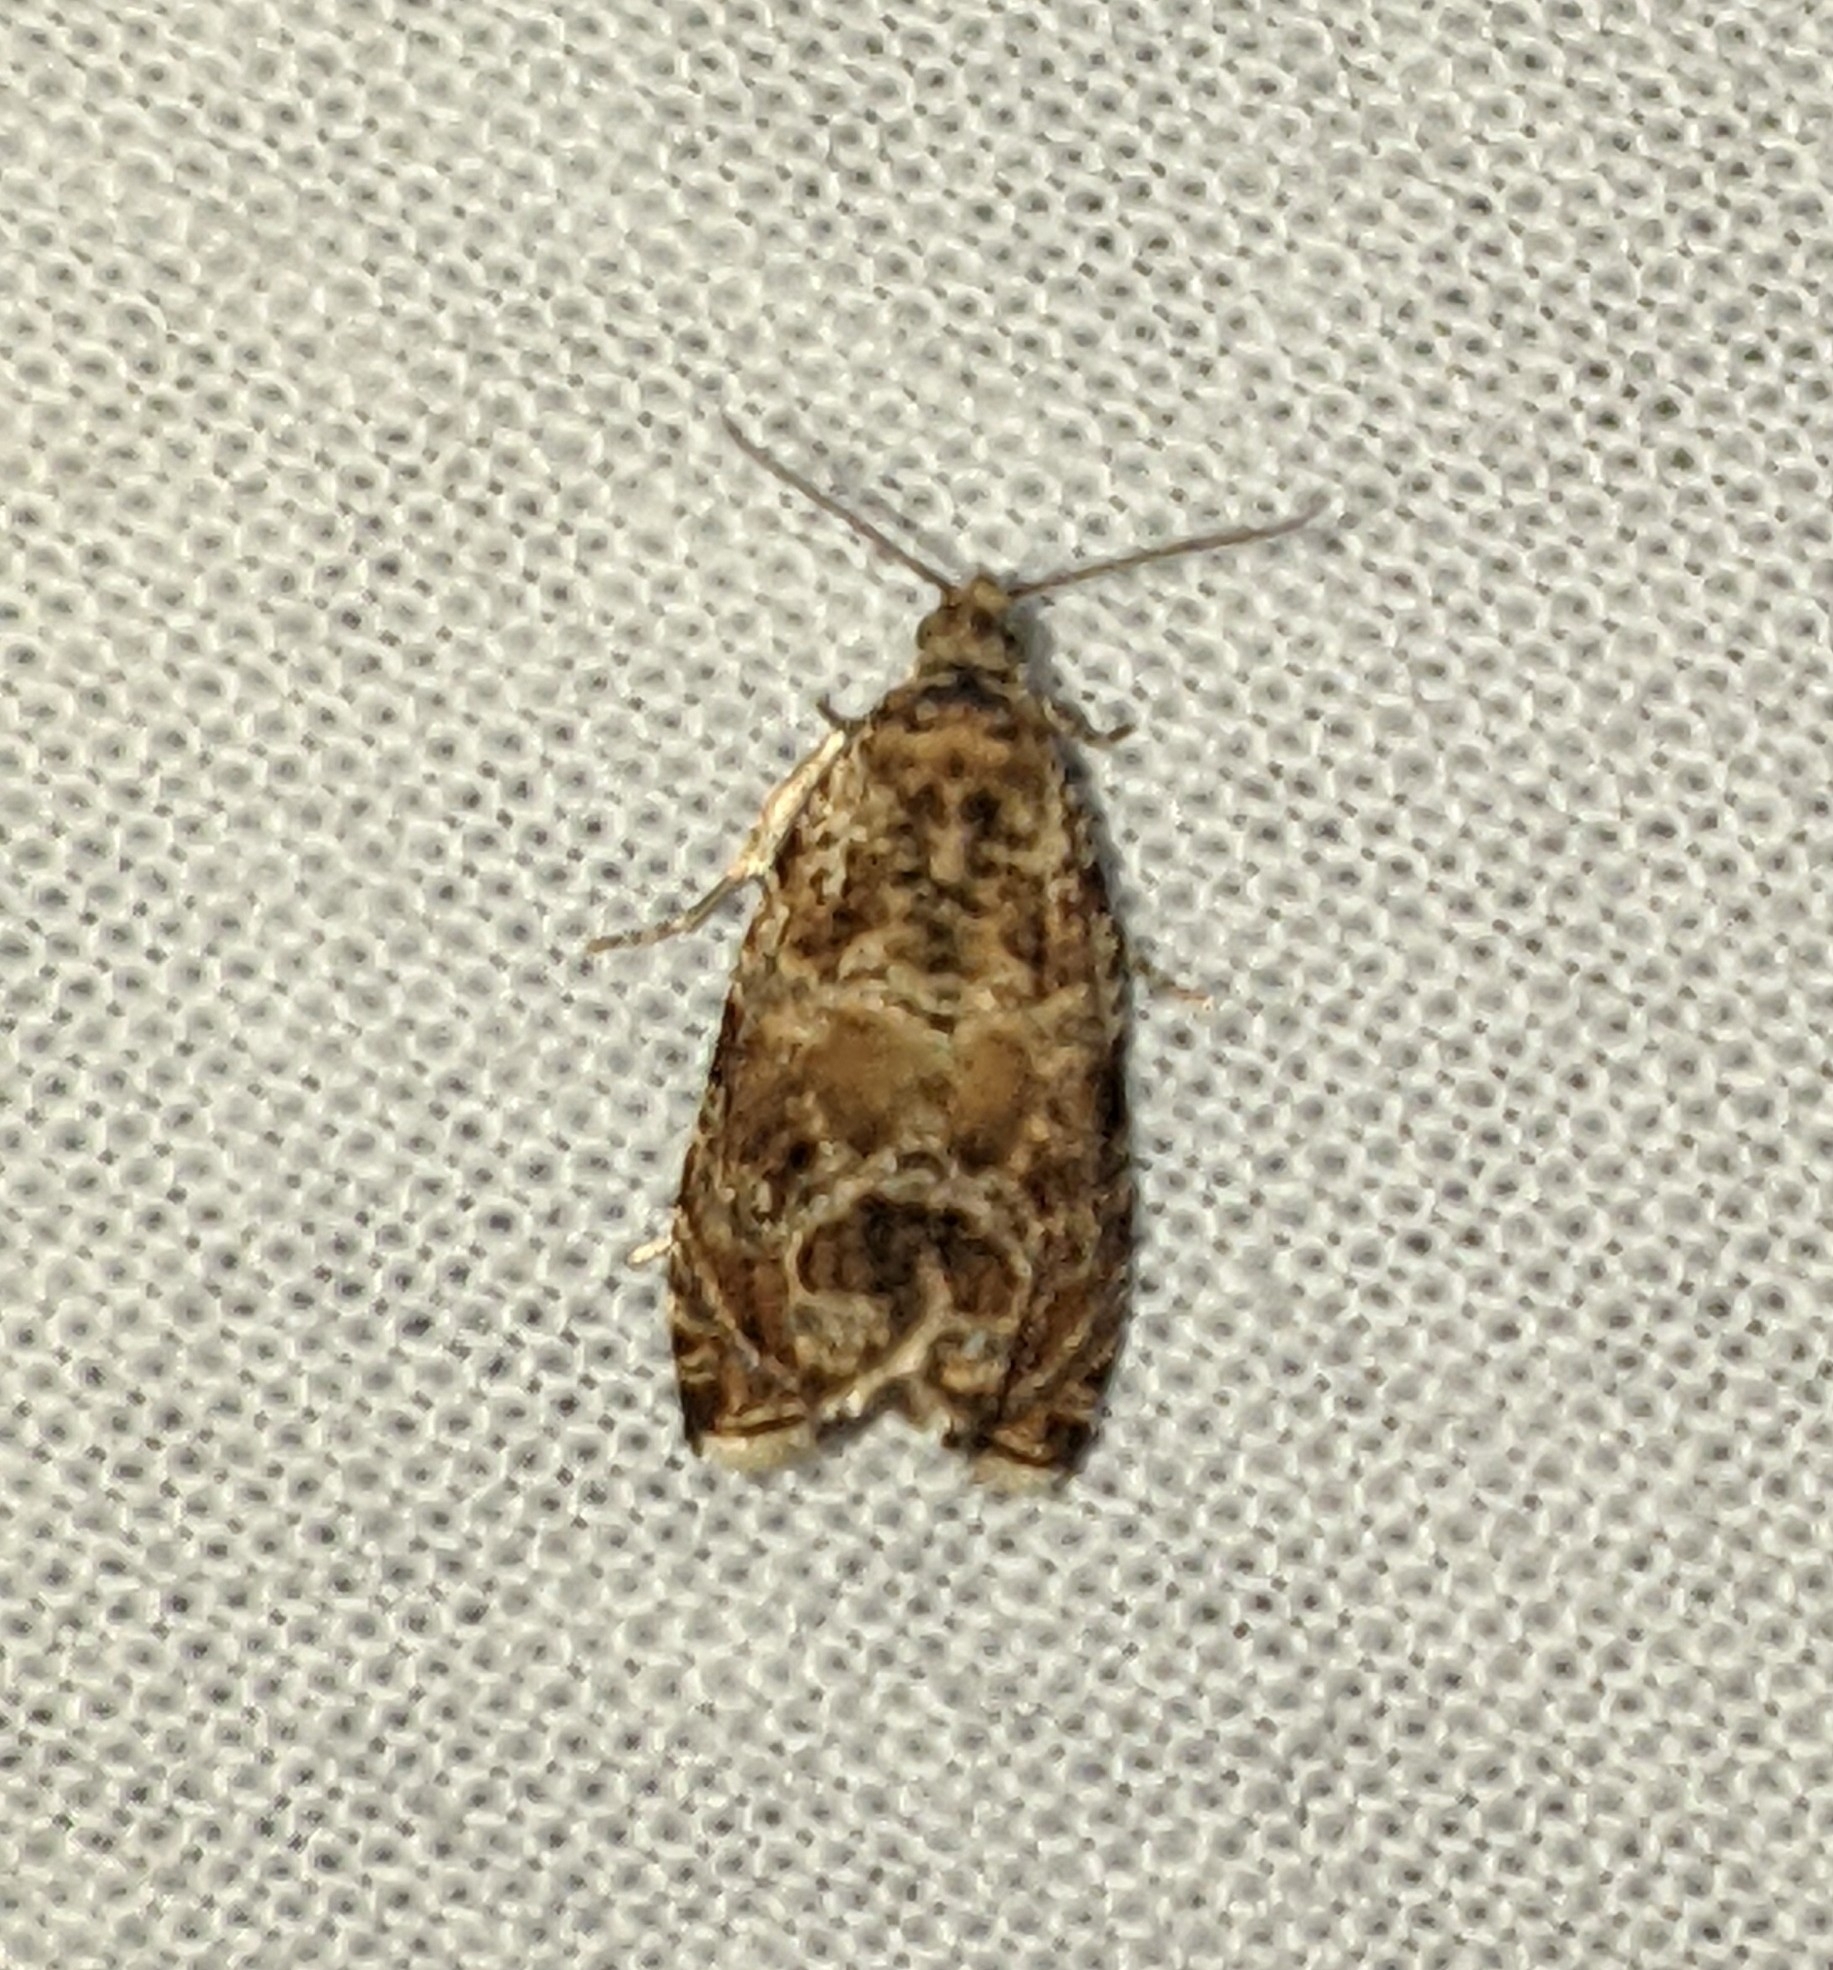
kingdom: Animalia
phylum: Arthropoda
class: Insecta
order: Lepidoptera
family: Tortricidae
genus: Celypha
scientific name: Celypha cespitana
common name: Thyme marble
